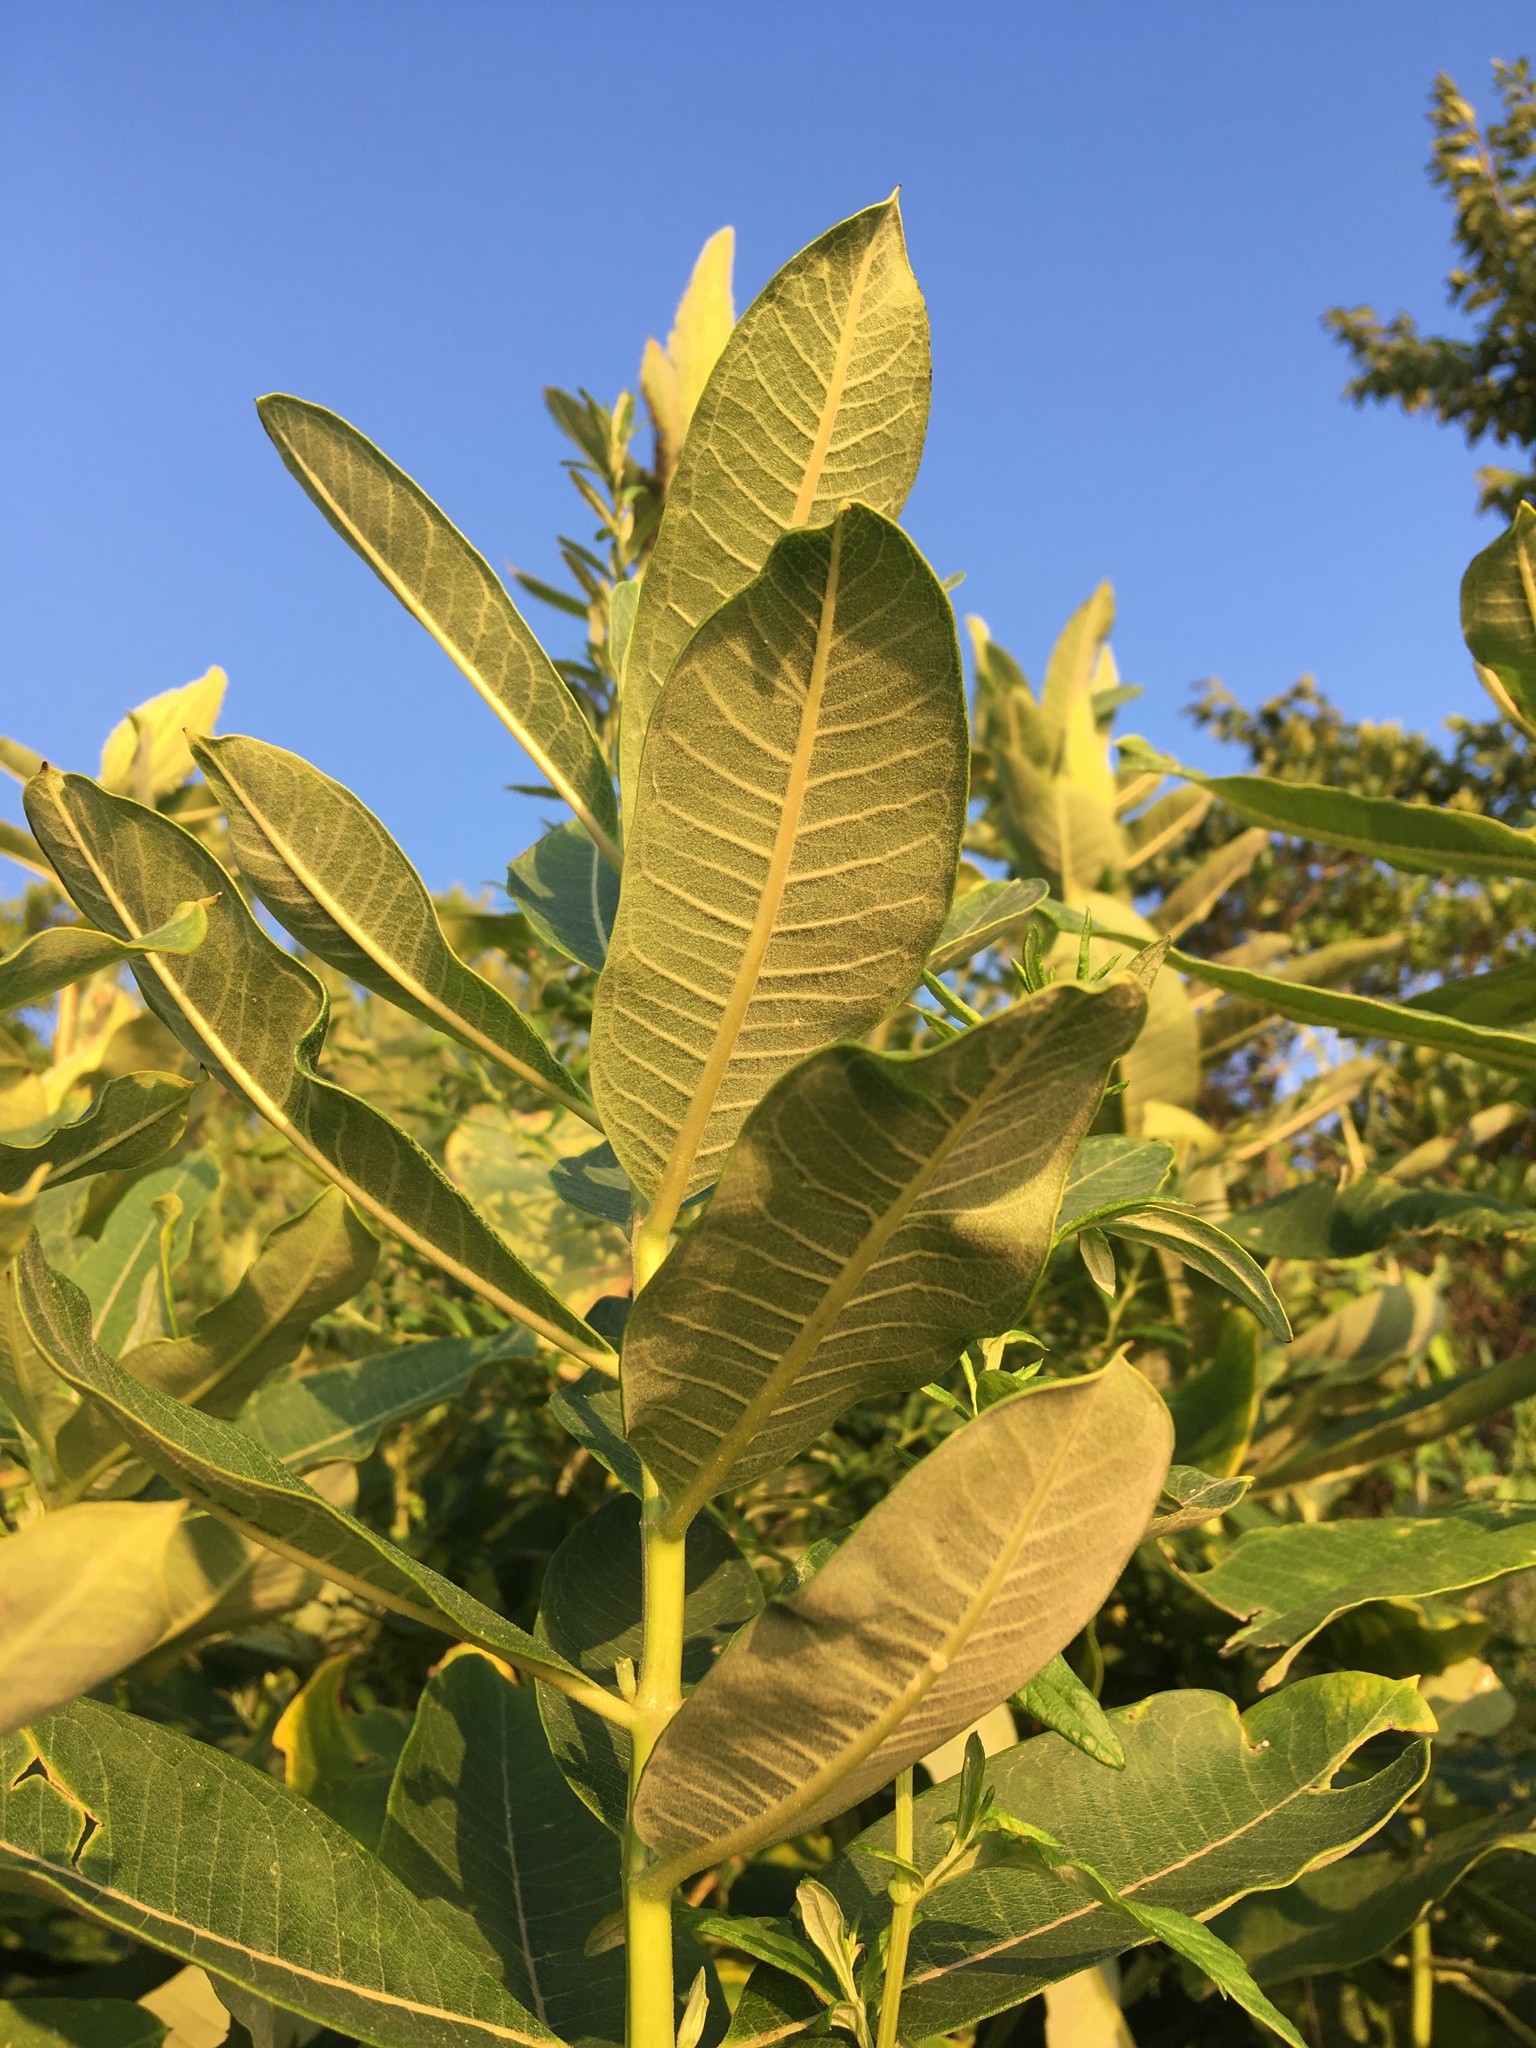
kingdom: Plantae
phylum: Tracheophyta
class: Magnoliopsida
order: Gentianales
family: Apocynaceae
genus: Asclepias
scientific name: Asclepias syriaca
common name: Common milkweed
